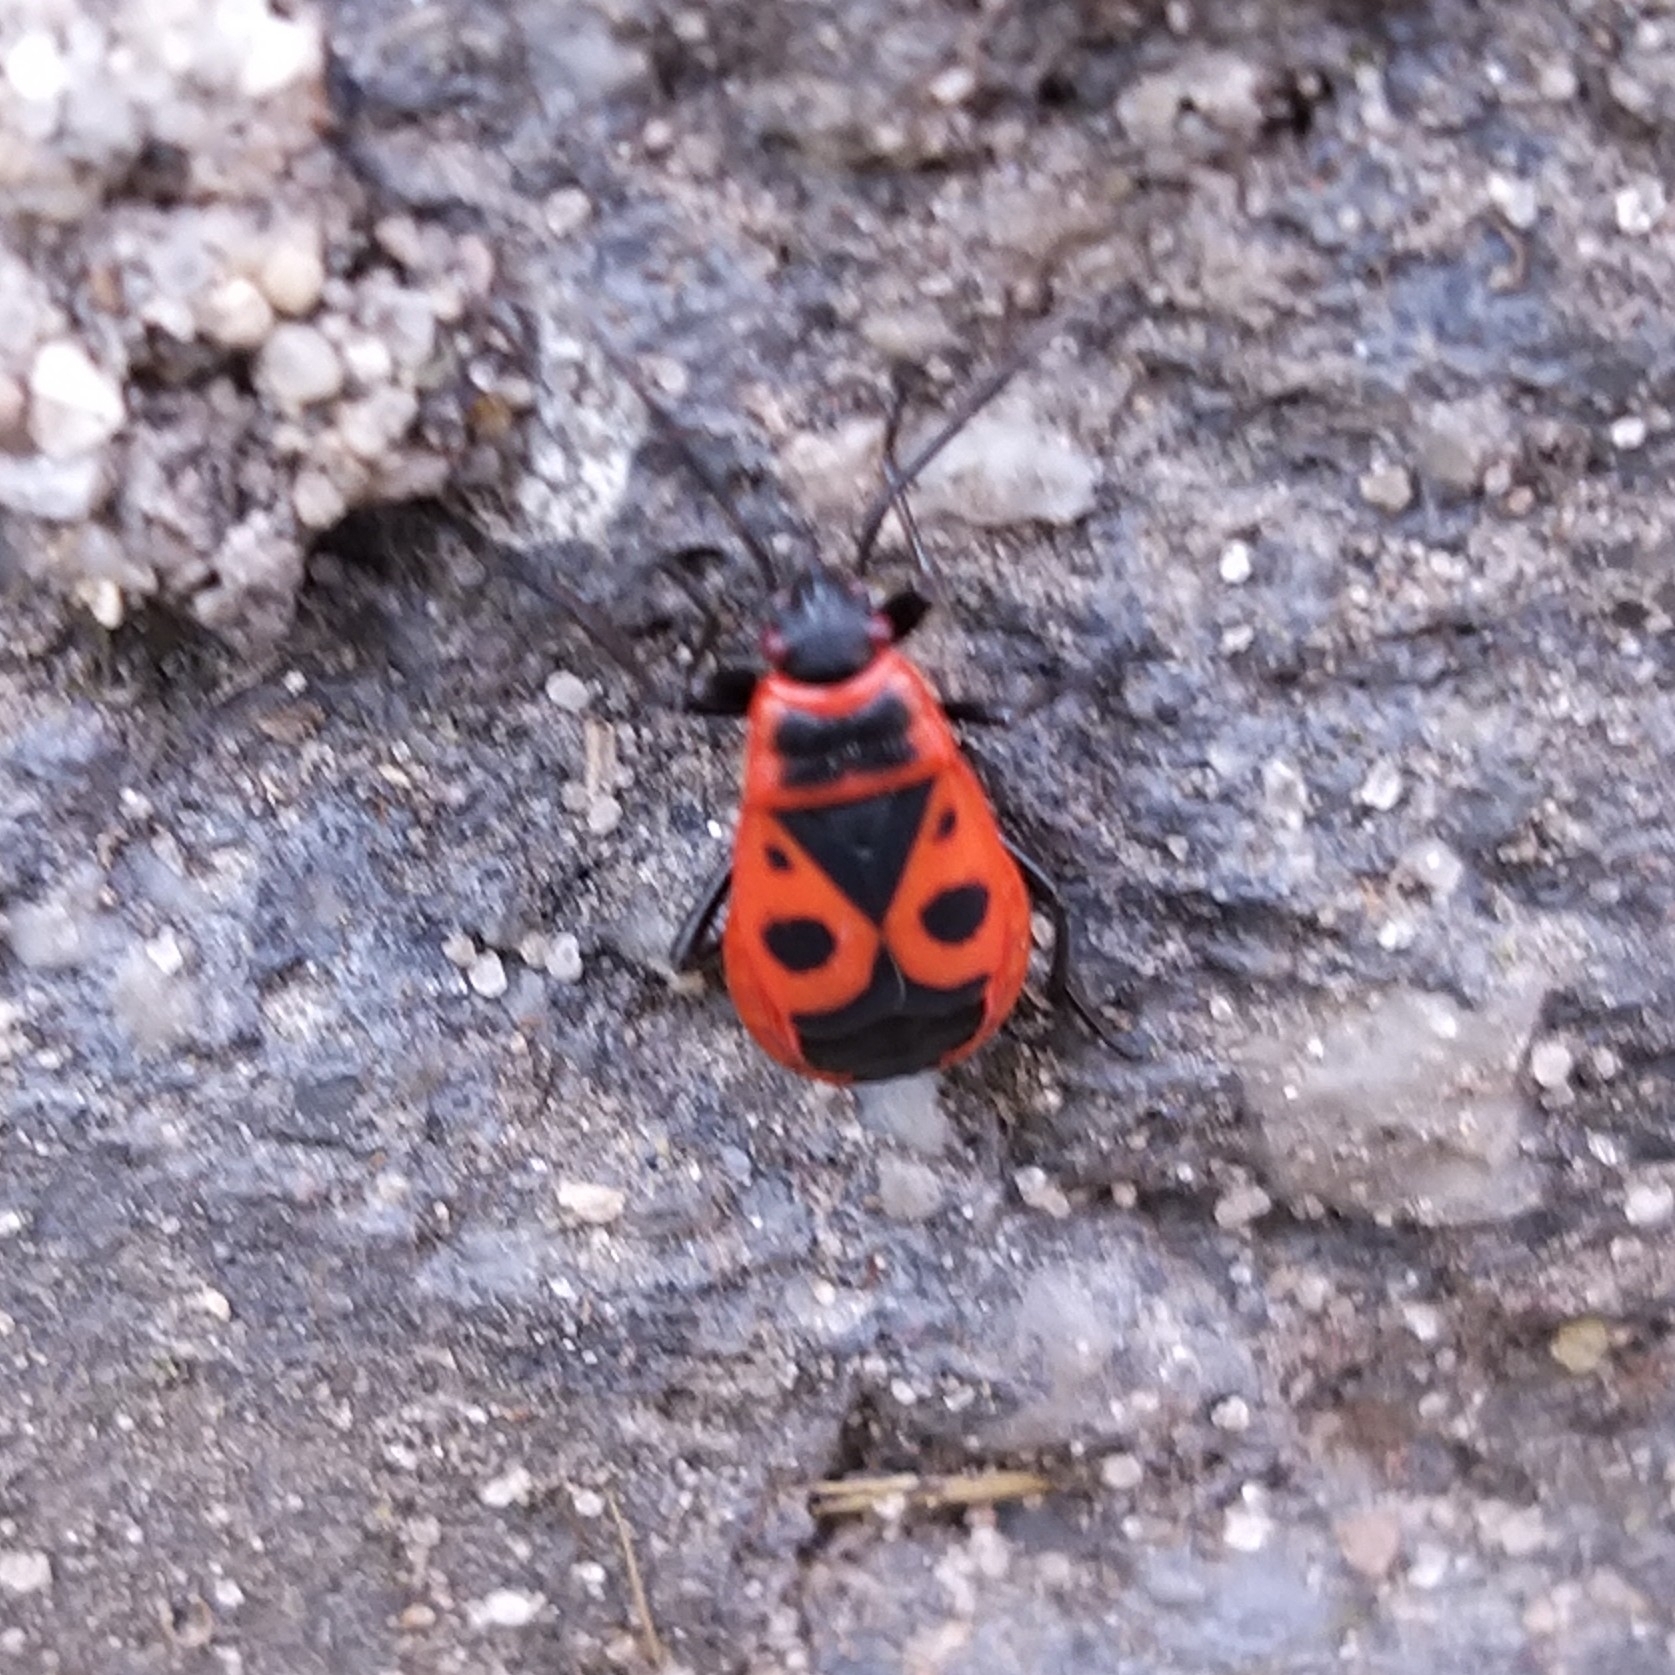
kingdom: Animalia
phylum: Arthropoda
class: Insecta
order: Hemiptera
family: Pyrrhocoridae
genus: Pyrrhocoris
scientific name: Pyrrhocoris apterus
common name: Firebug
